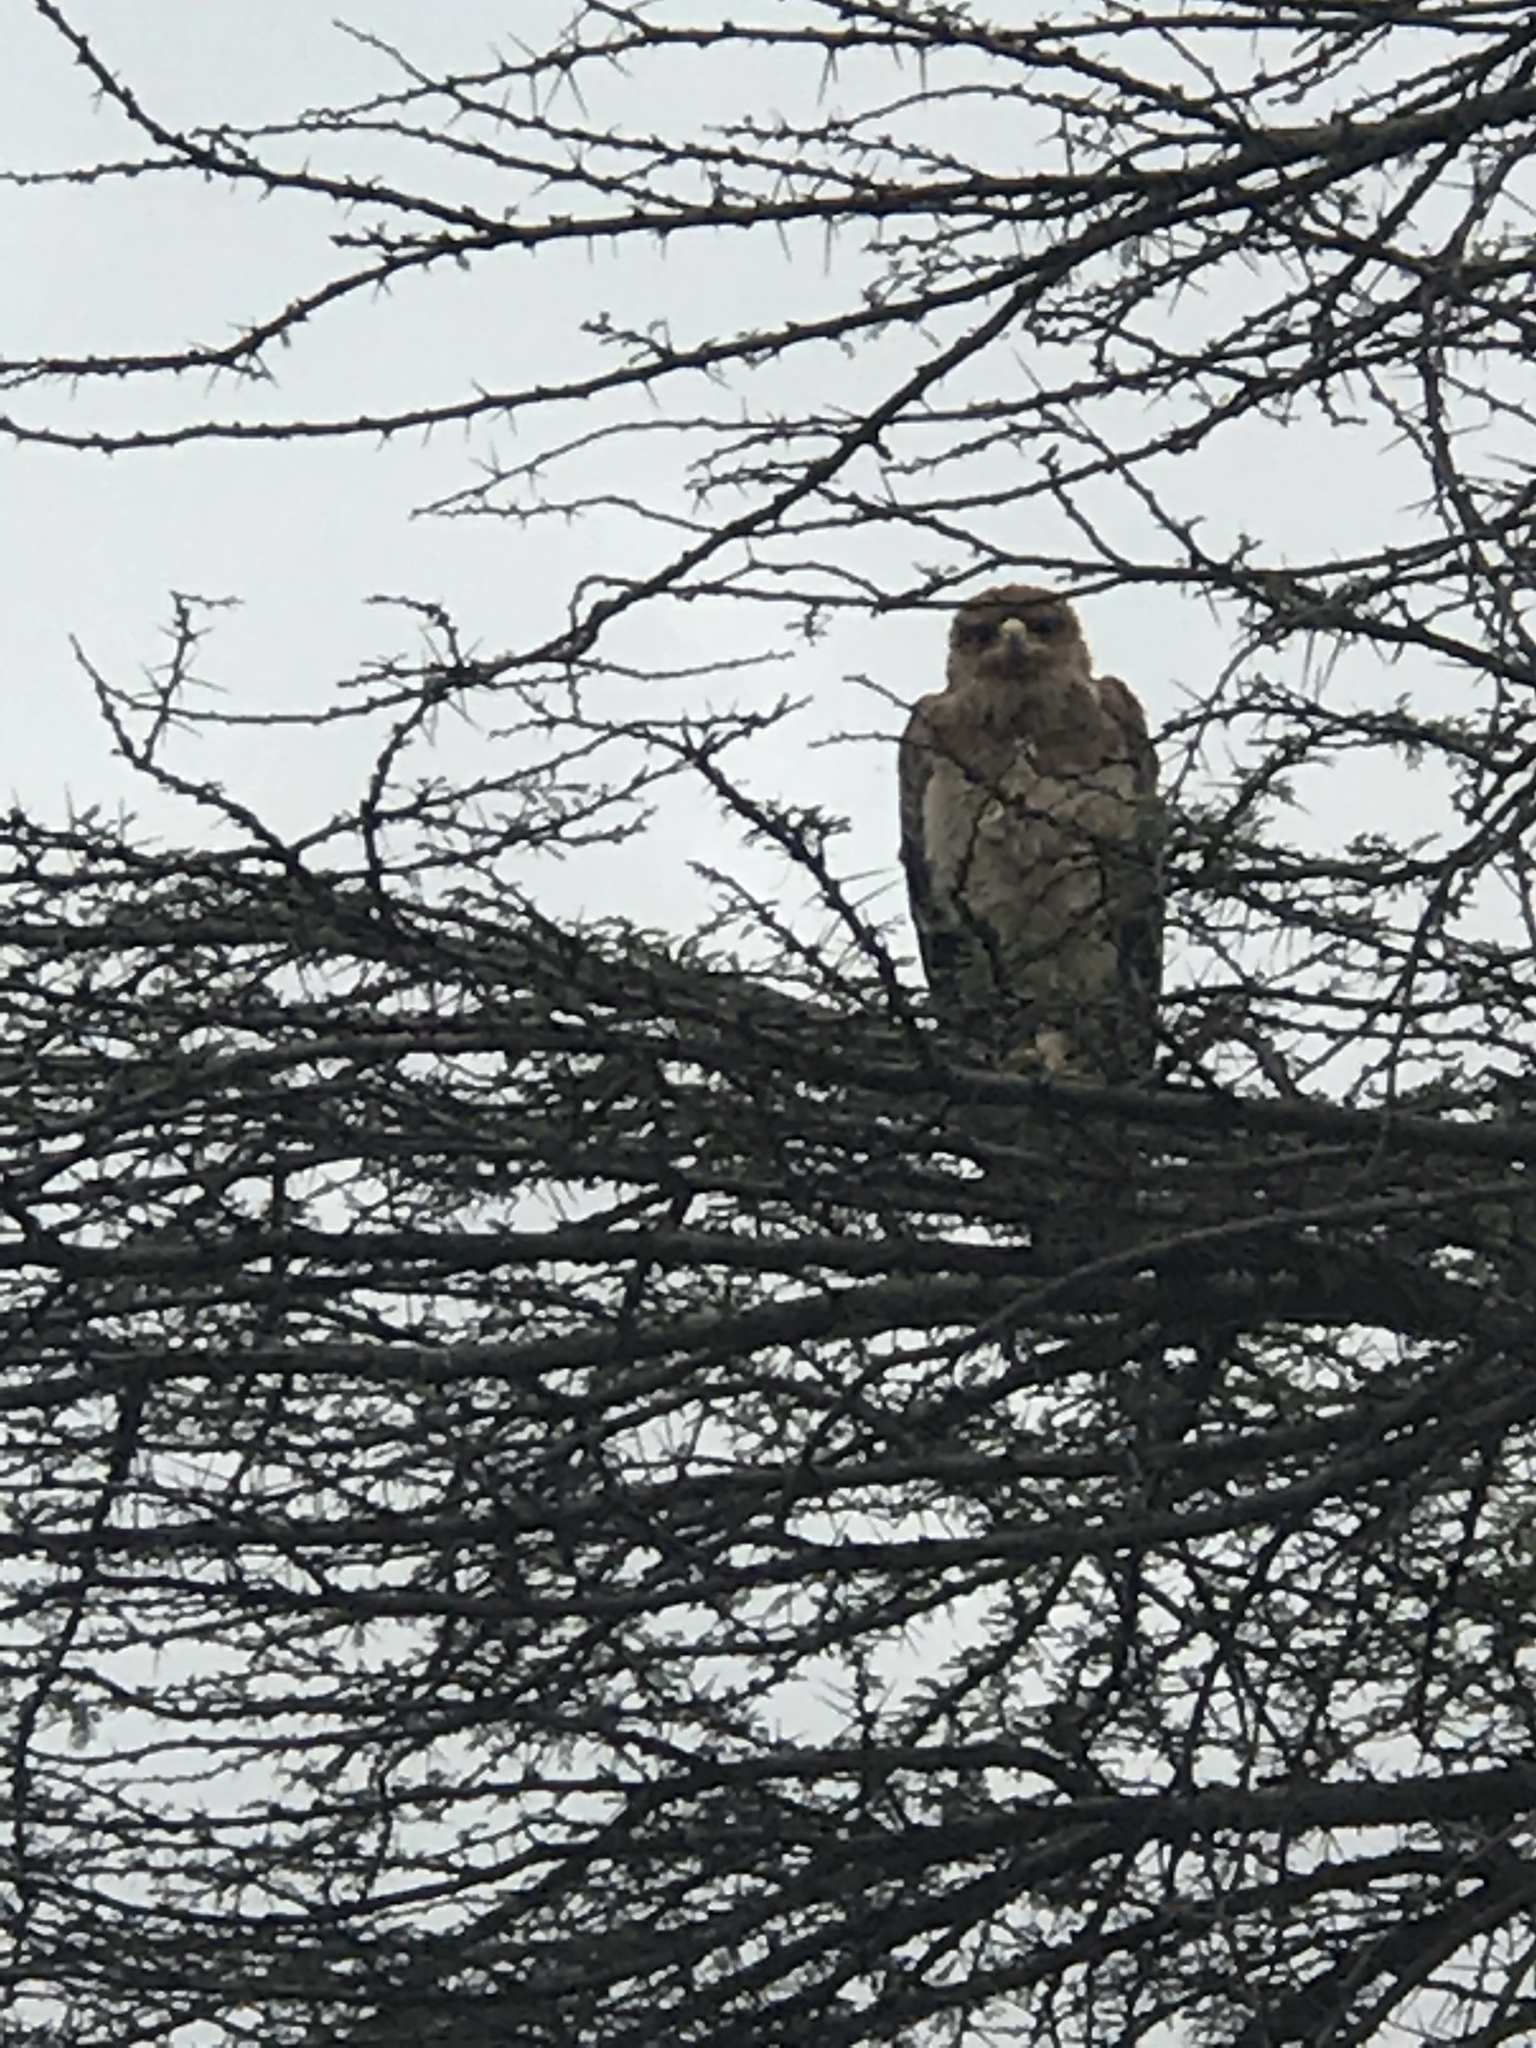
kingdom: Animalia
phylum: Chordata
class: Aves
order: Accipitriformes
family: Accipitridae
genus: Aquila
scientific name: Aquila rapax
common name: Tawny eagle
